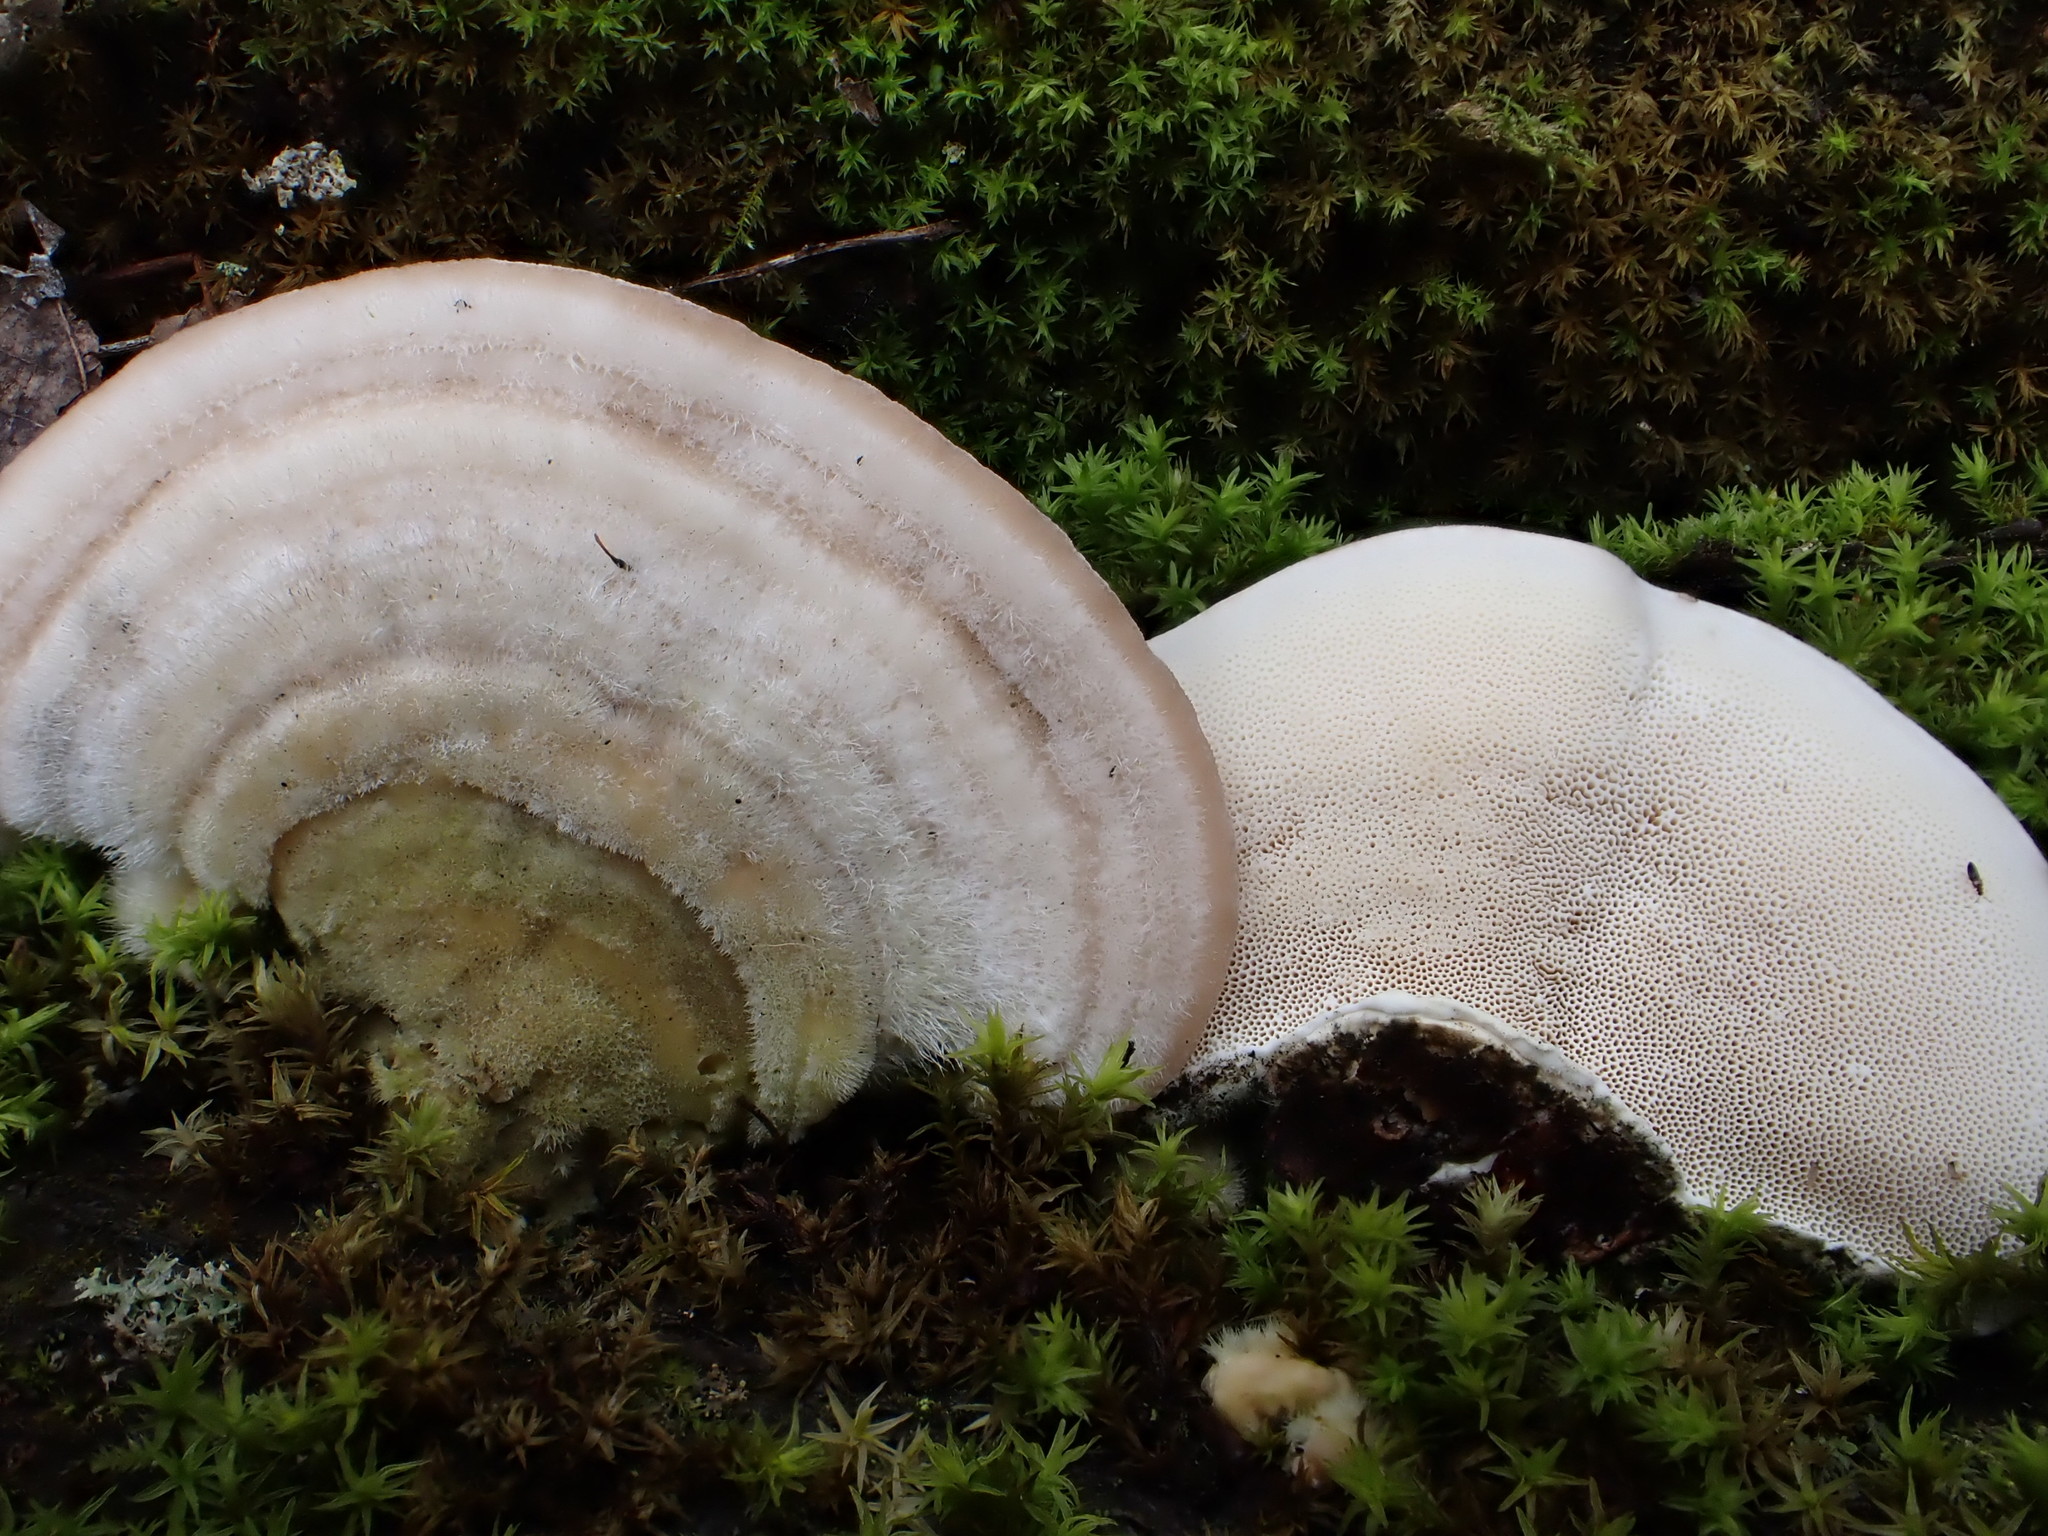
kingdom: Fungi
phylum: Basidiomycota
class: Agaricomycetes
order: Polyporales
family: Polyporaceae
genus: Trametes
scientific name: Trametes hirsuta
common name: Hairy bracket
